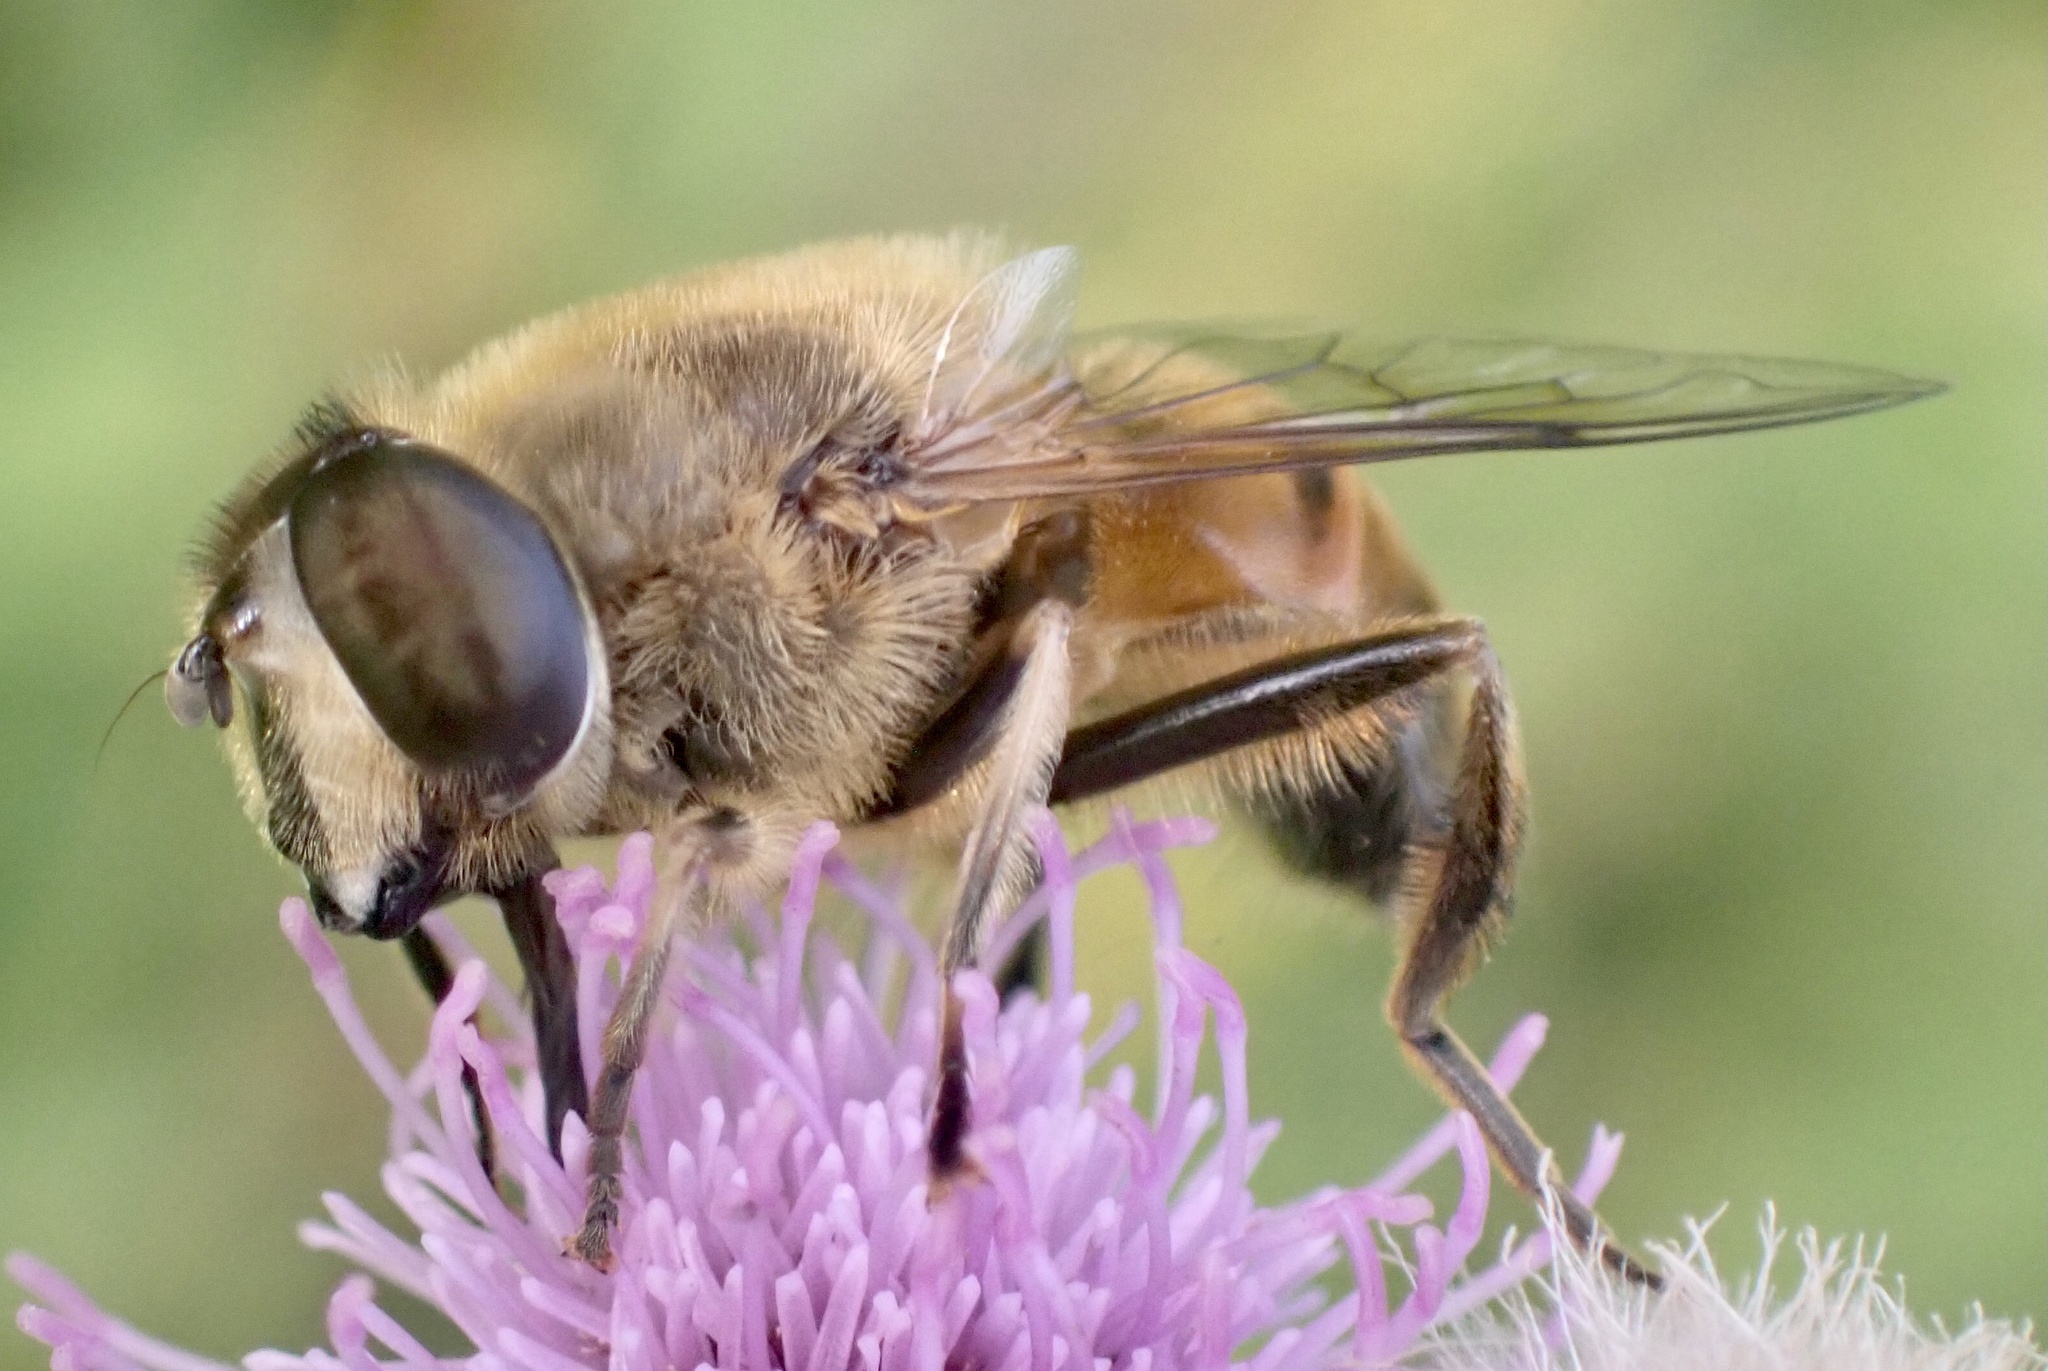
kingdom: Animalia
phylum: Arthropoda
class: Insecta
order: Diptera
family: Syrphidae
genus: Eristalis
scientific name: Eristalis tenax
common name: Drone fly
